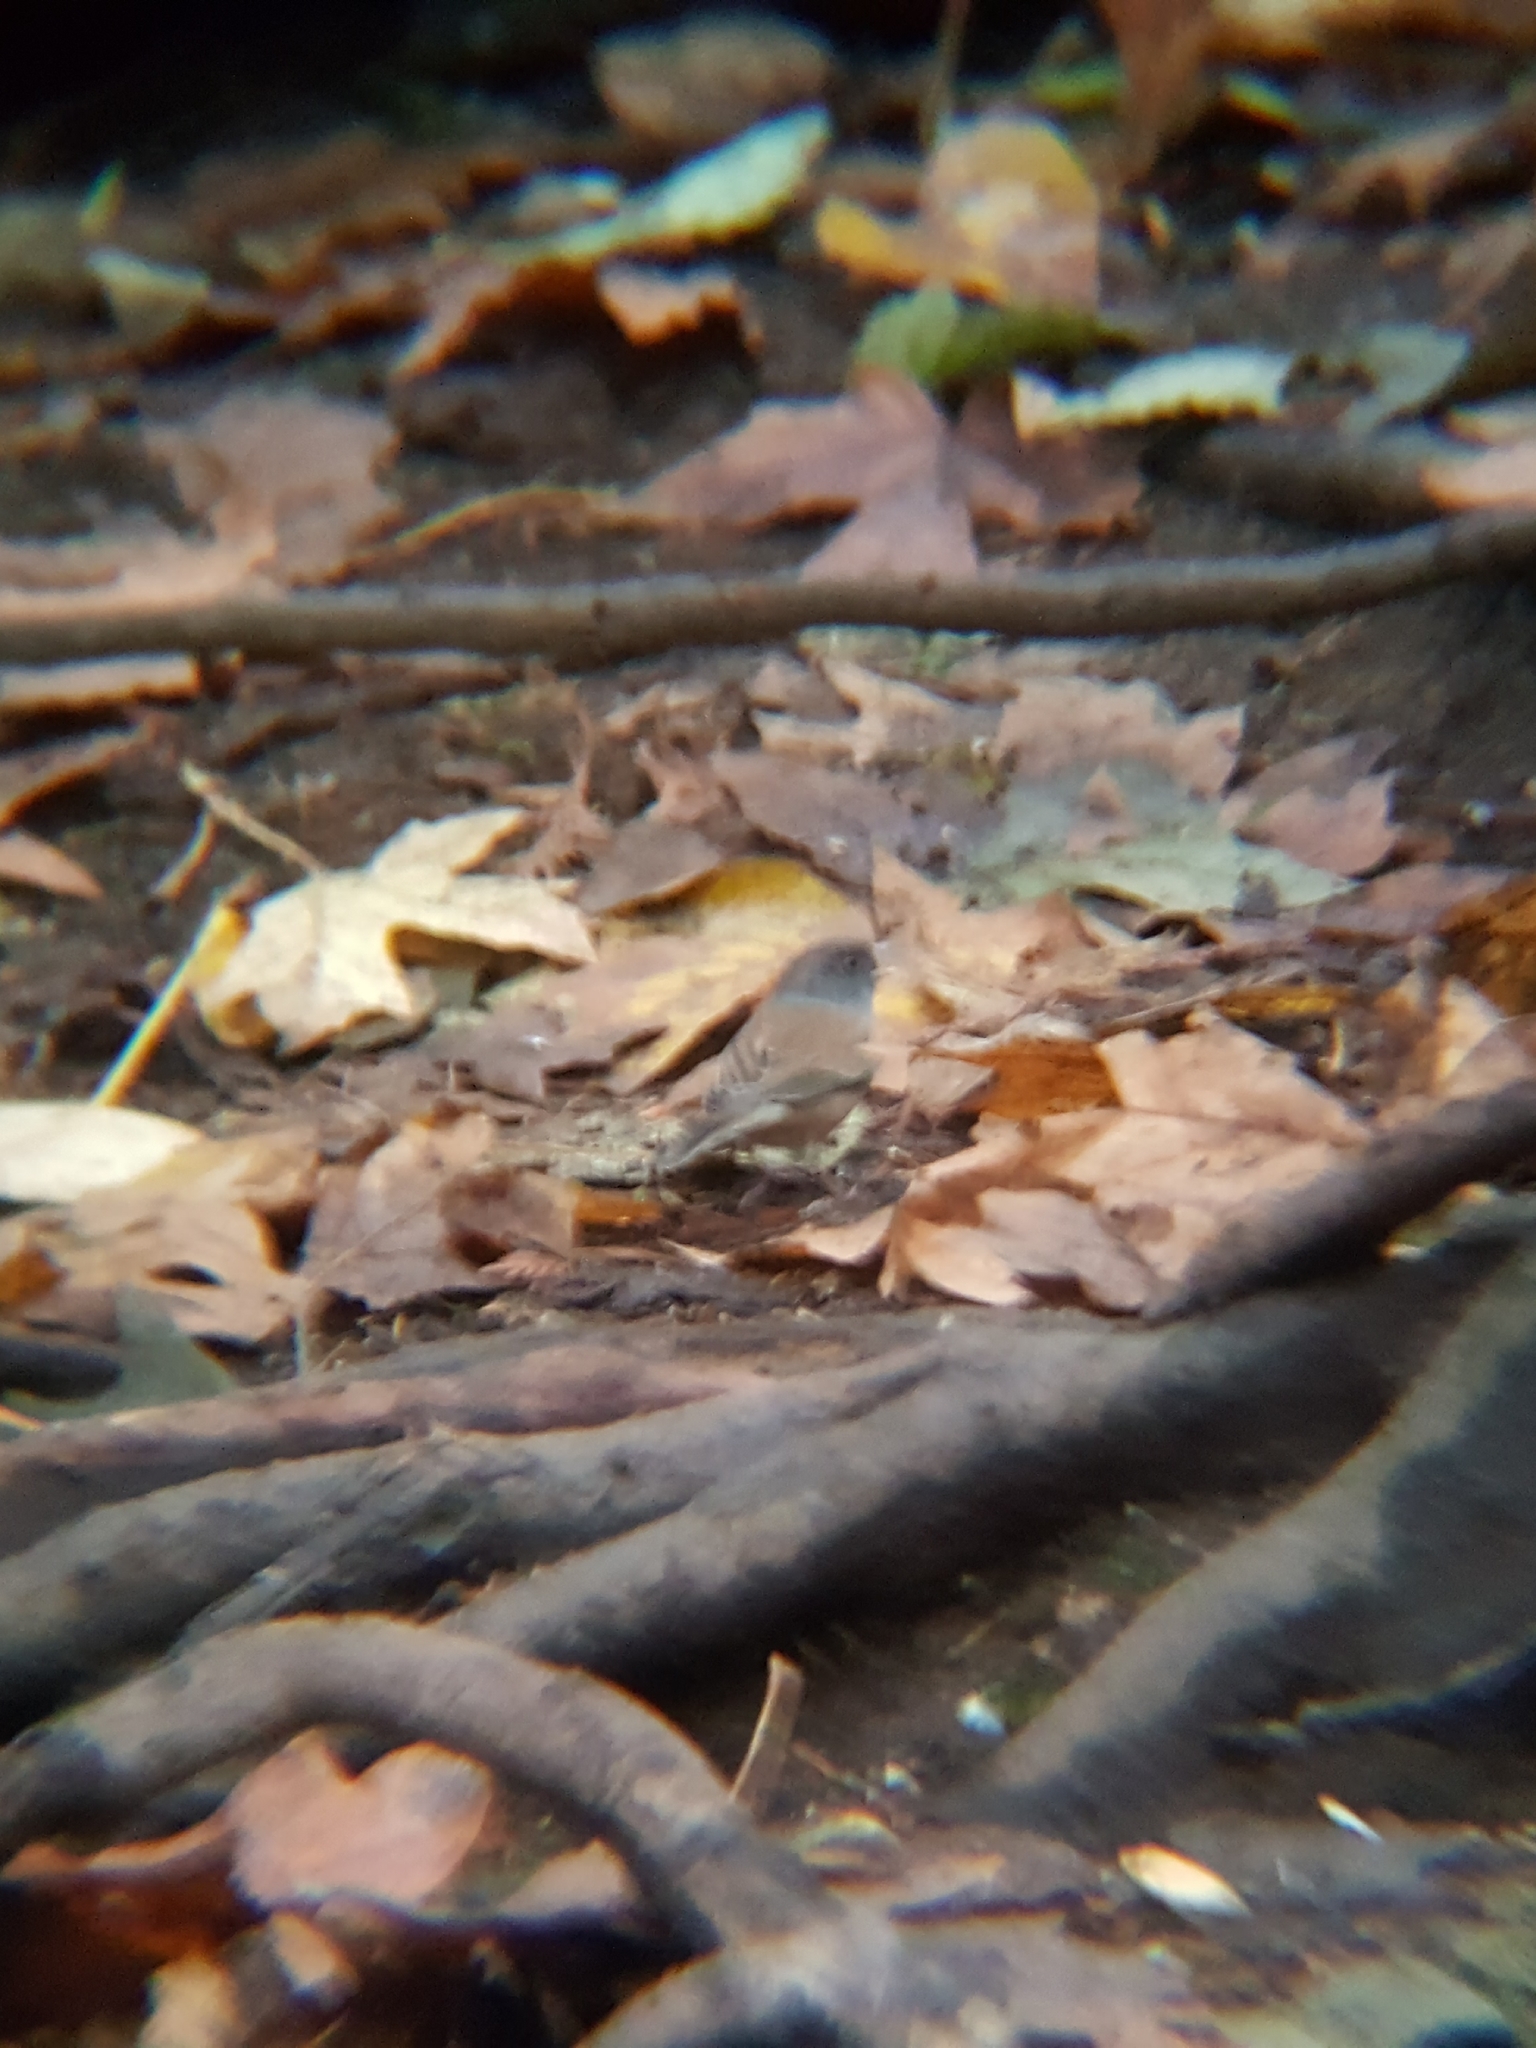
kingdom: Animalia
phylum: Chordata
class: Aves
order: Passeriformes
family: Passerellidae
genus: Junco
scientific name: Junco hyemalis
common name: Dark-eyed junco
